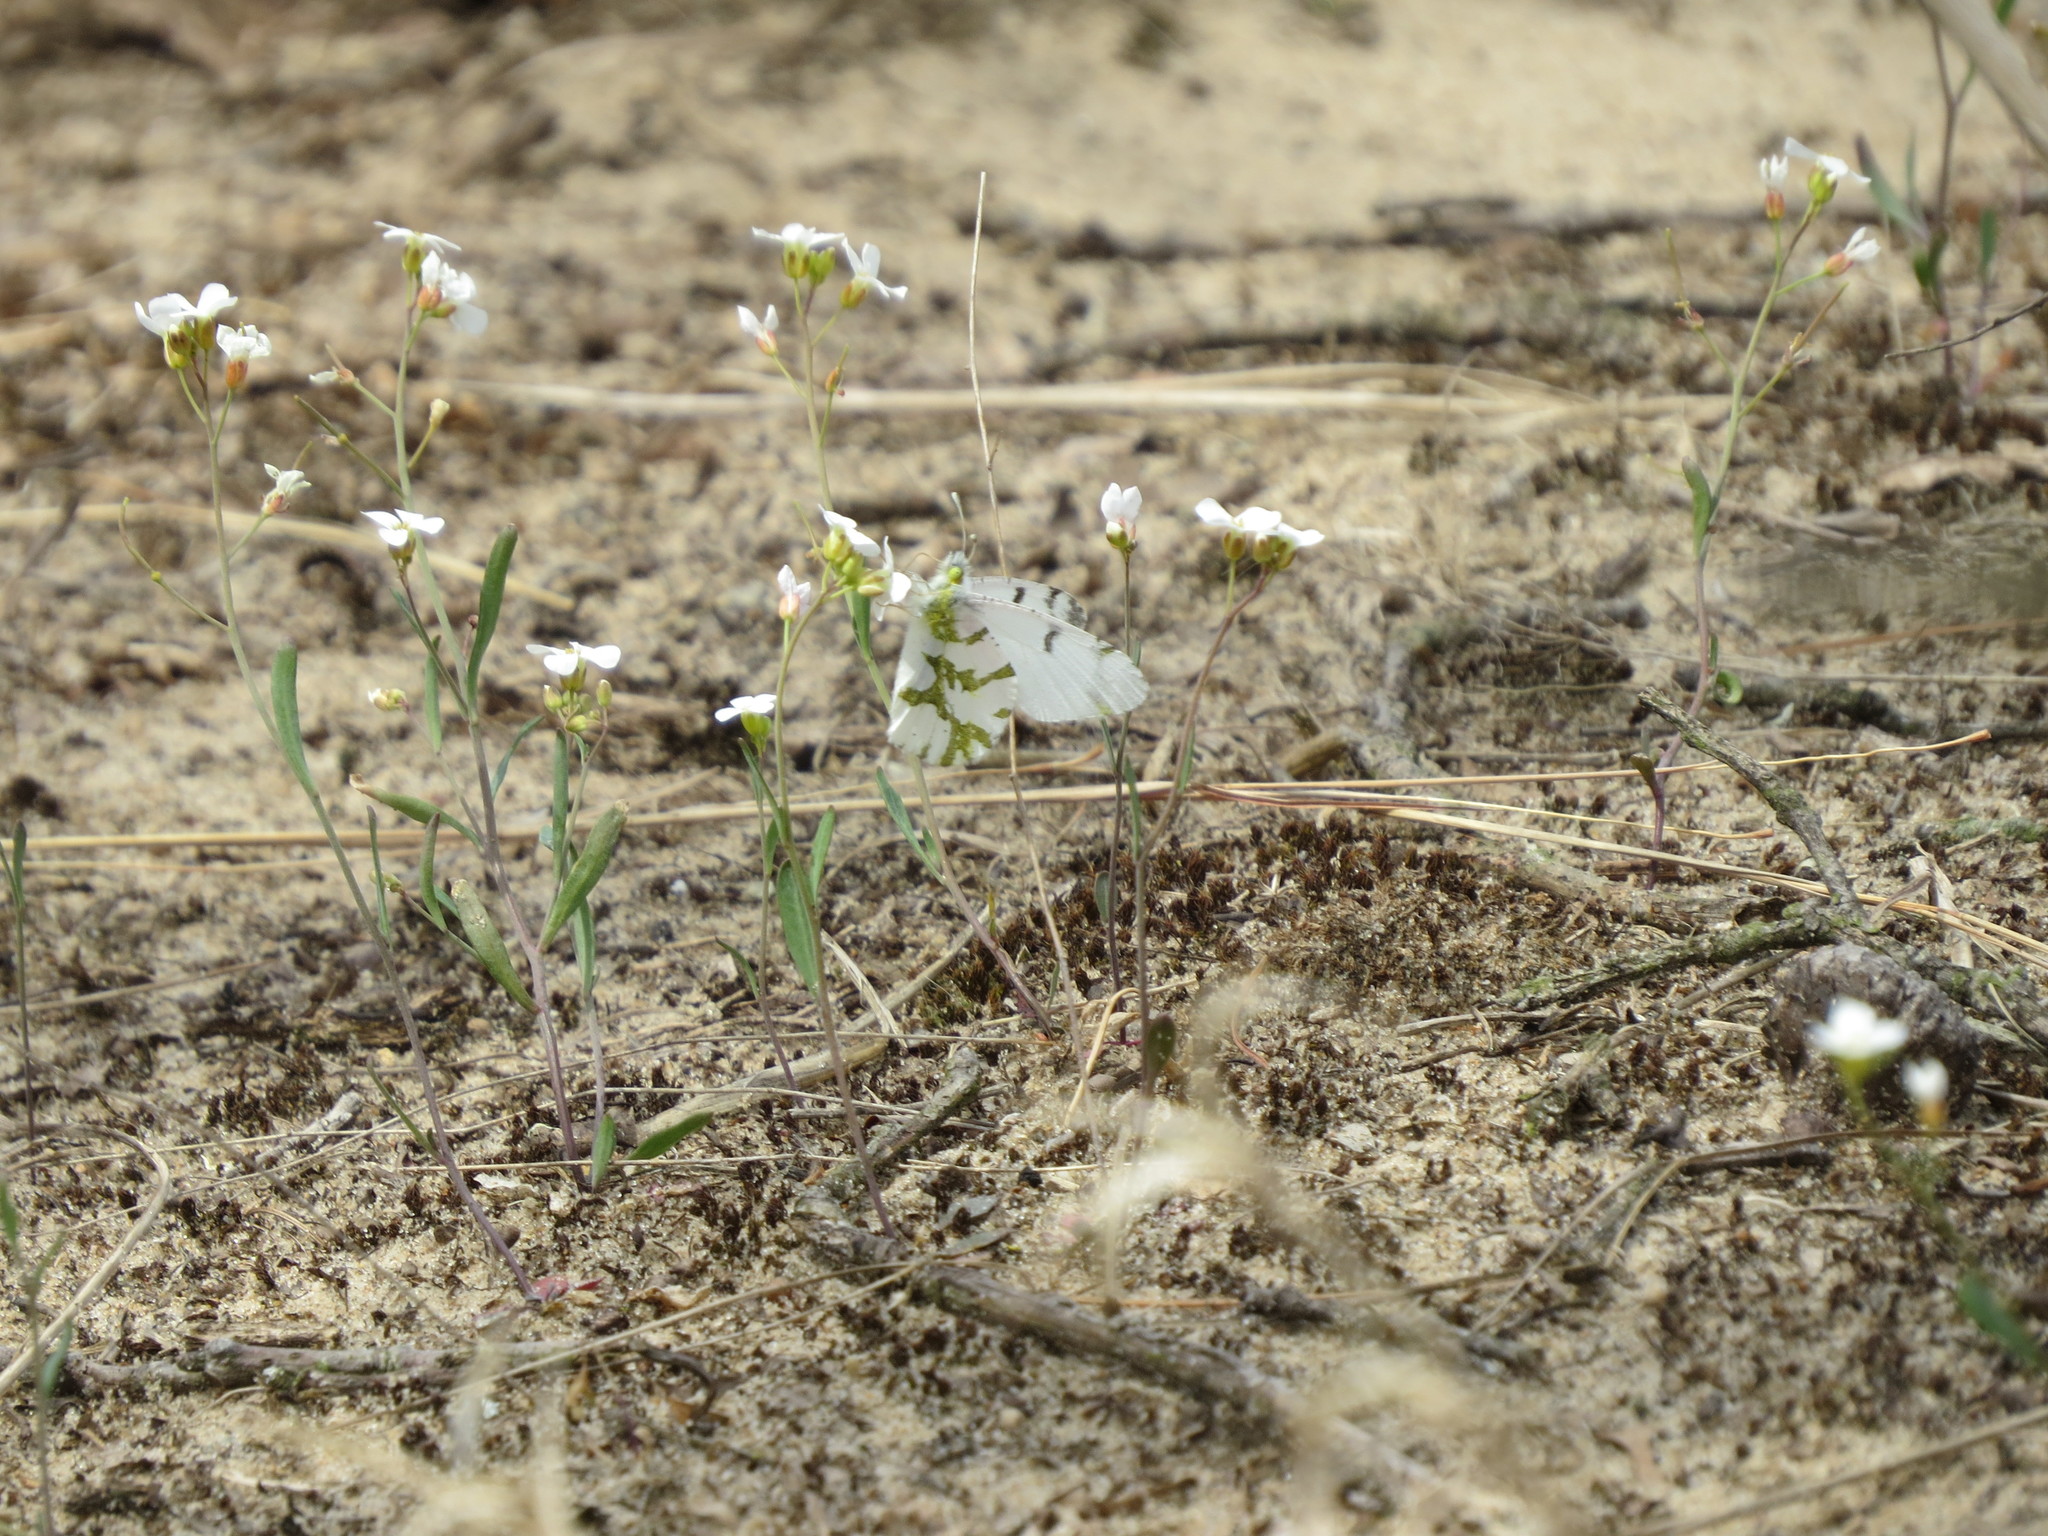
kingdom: Animalia
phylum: Arthropoda
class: Insecta
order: Lepidoptera
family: Pieridae
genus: Euchloe
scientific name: Euchloe olympia
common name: Olympia
